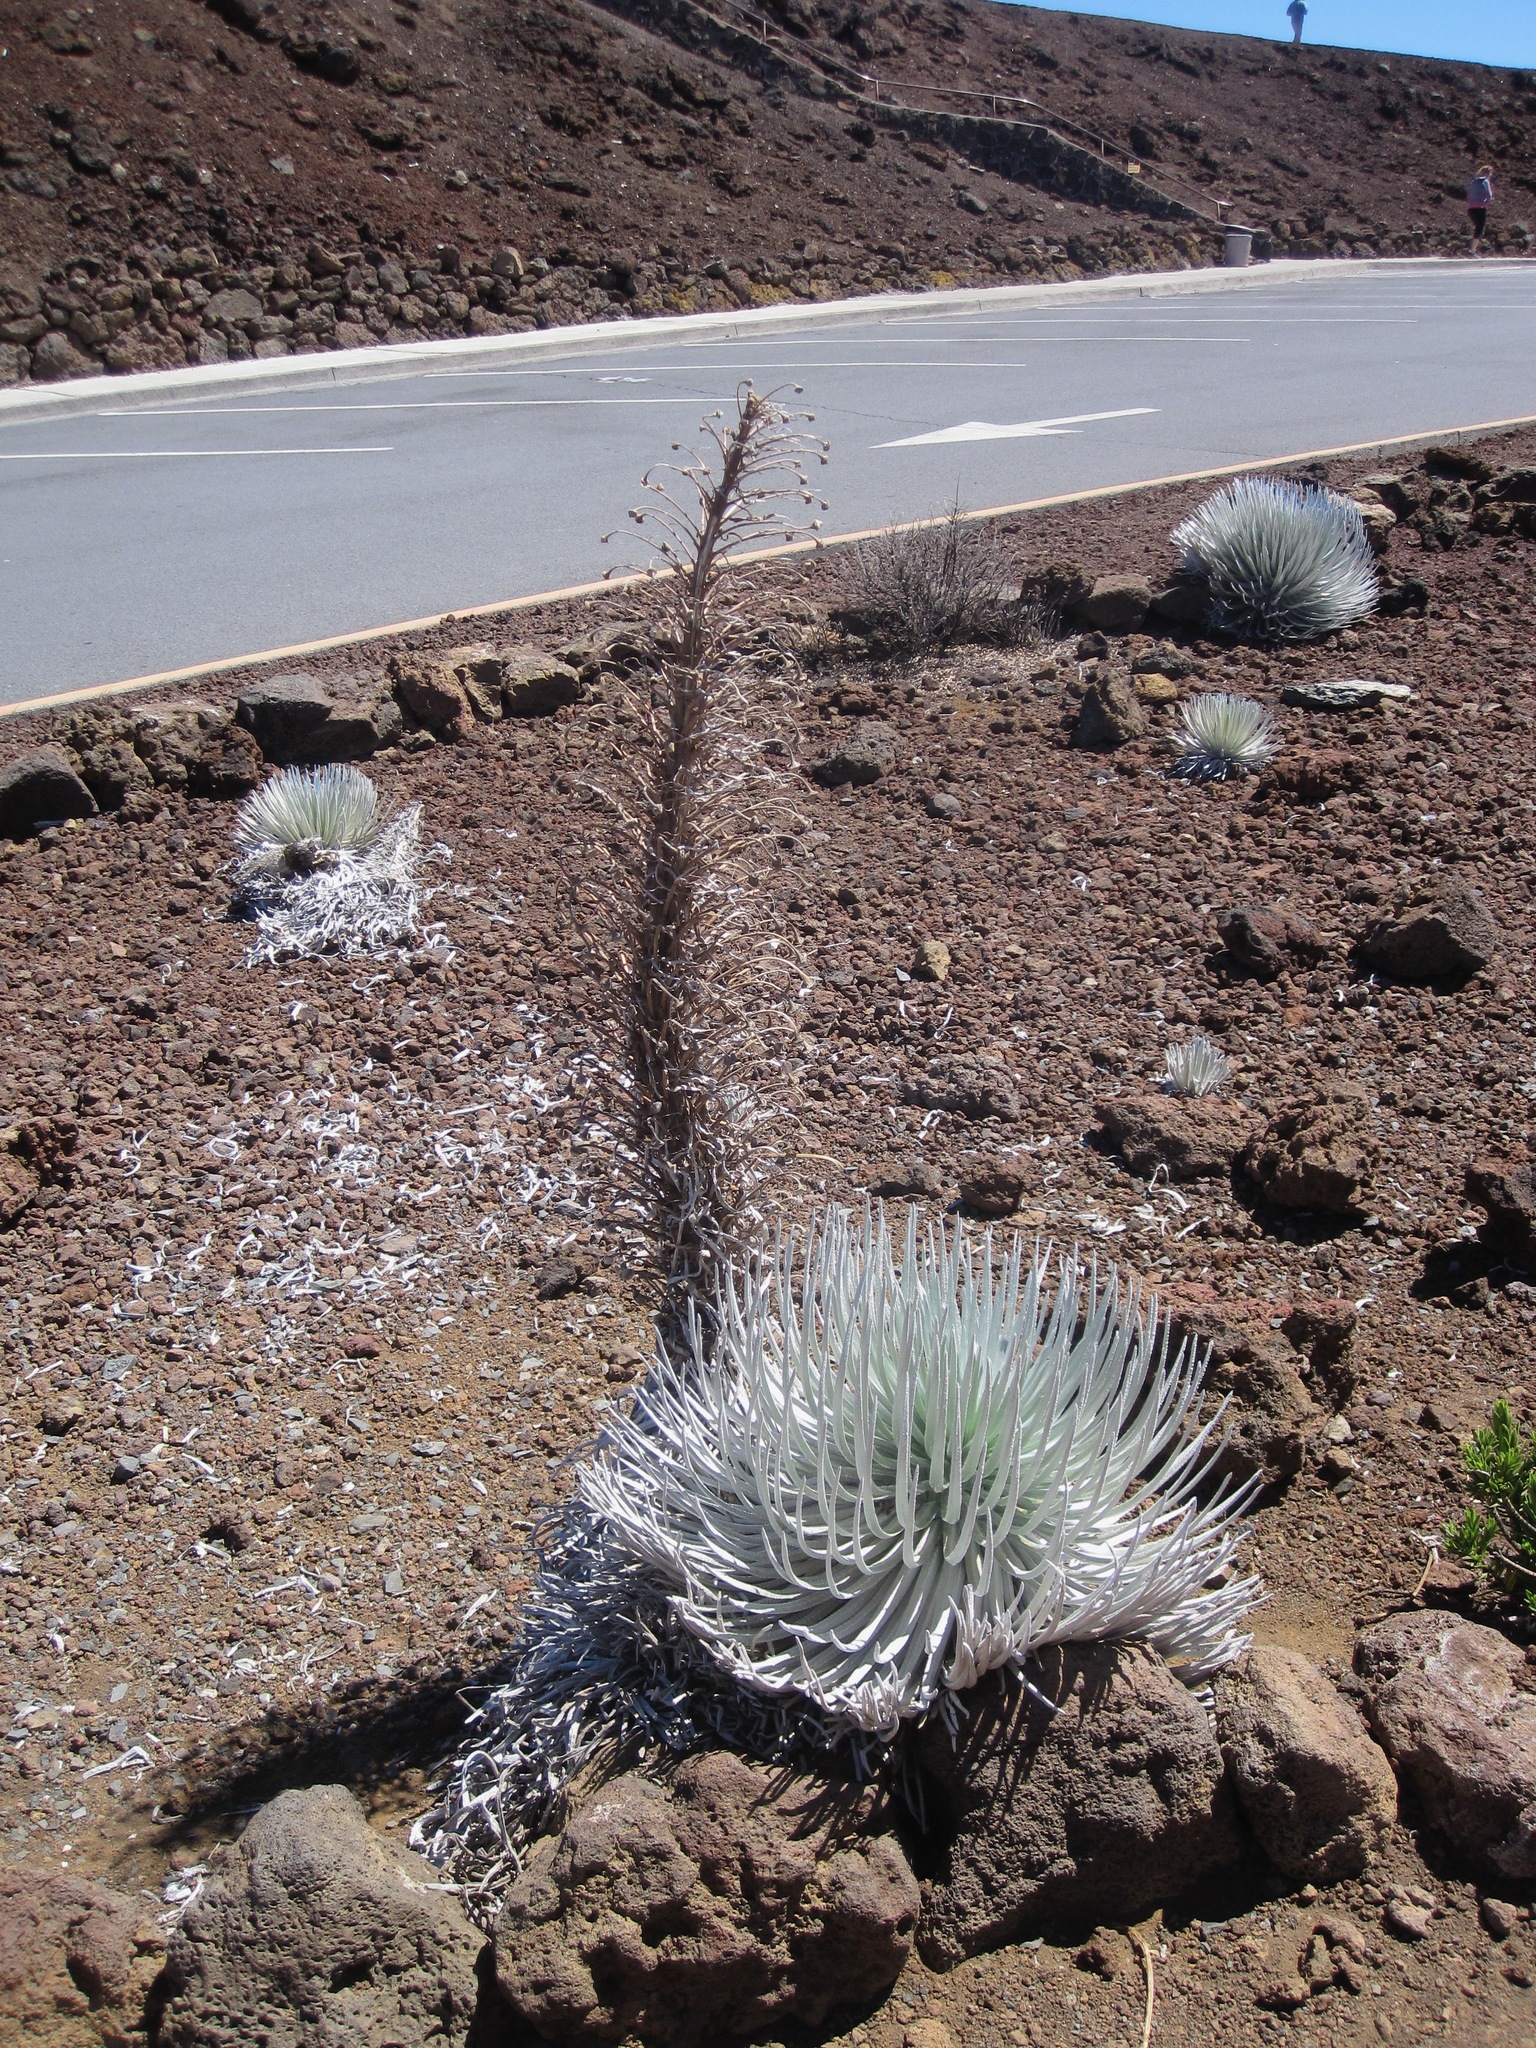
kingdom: Plantae
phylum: Tracheophyta
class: Magnoliopsida
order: Asterales
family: Asteraceae
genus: Argyroxiphium
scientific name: Argyroxiphium sandwicense
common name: Silversword
